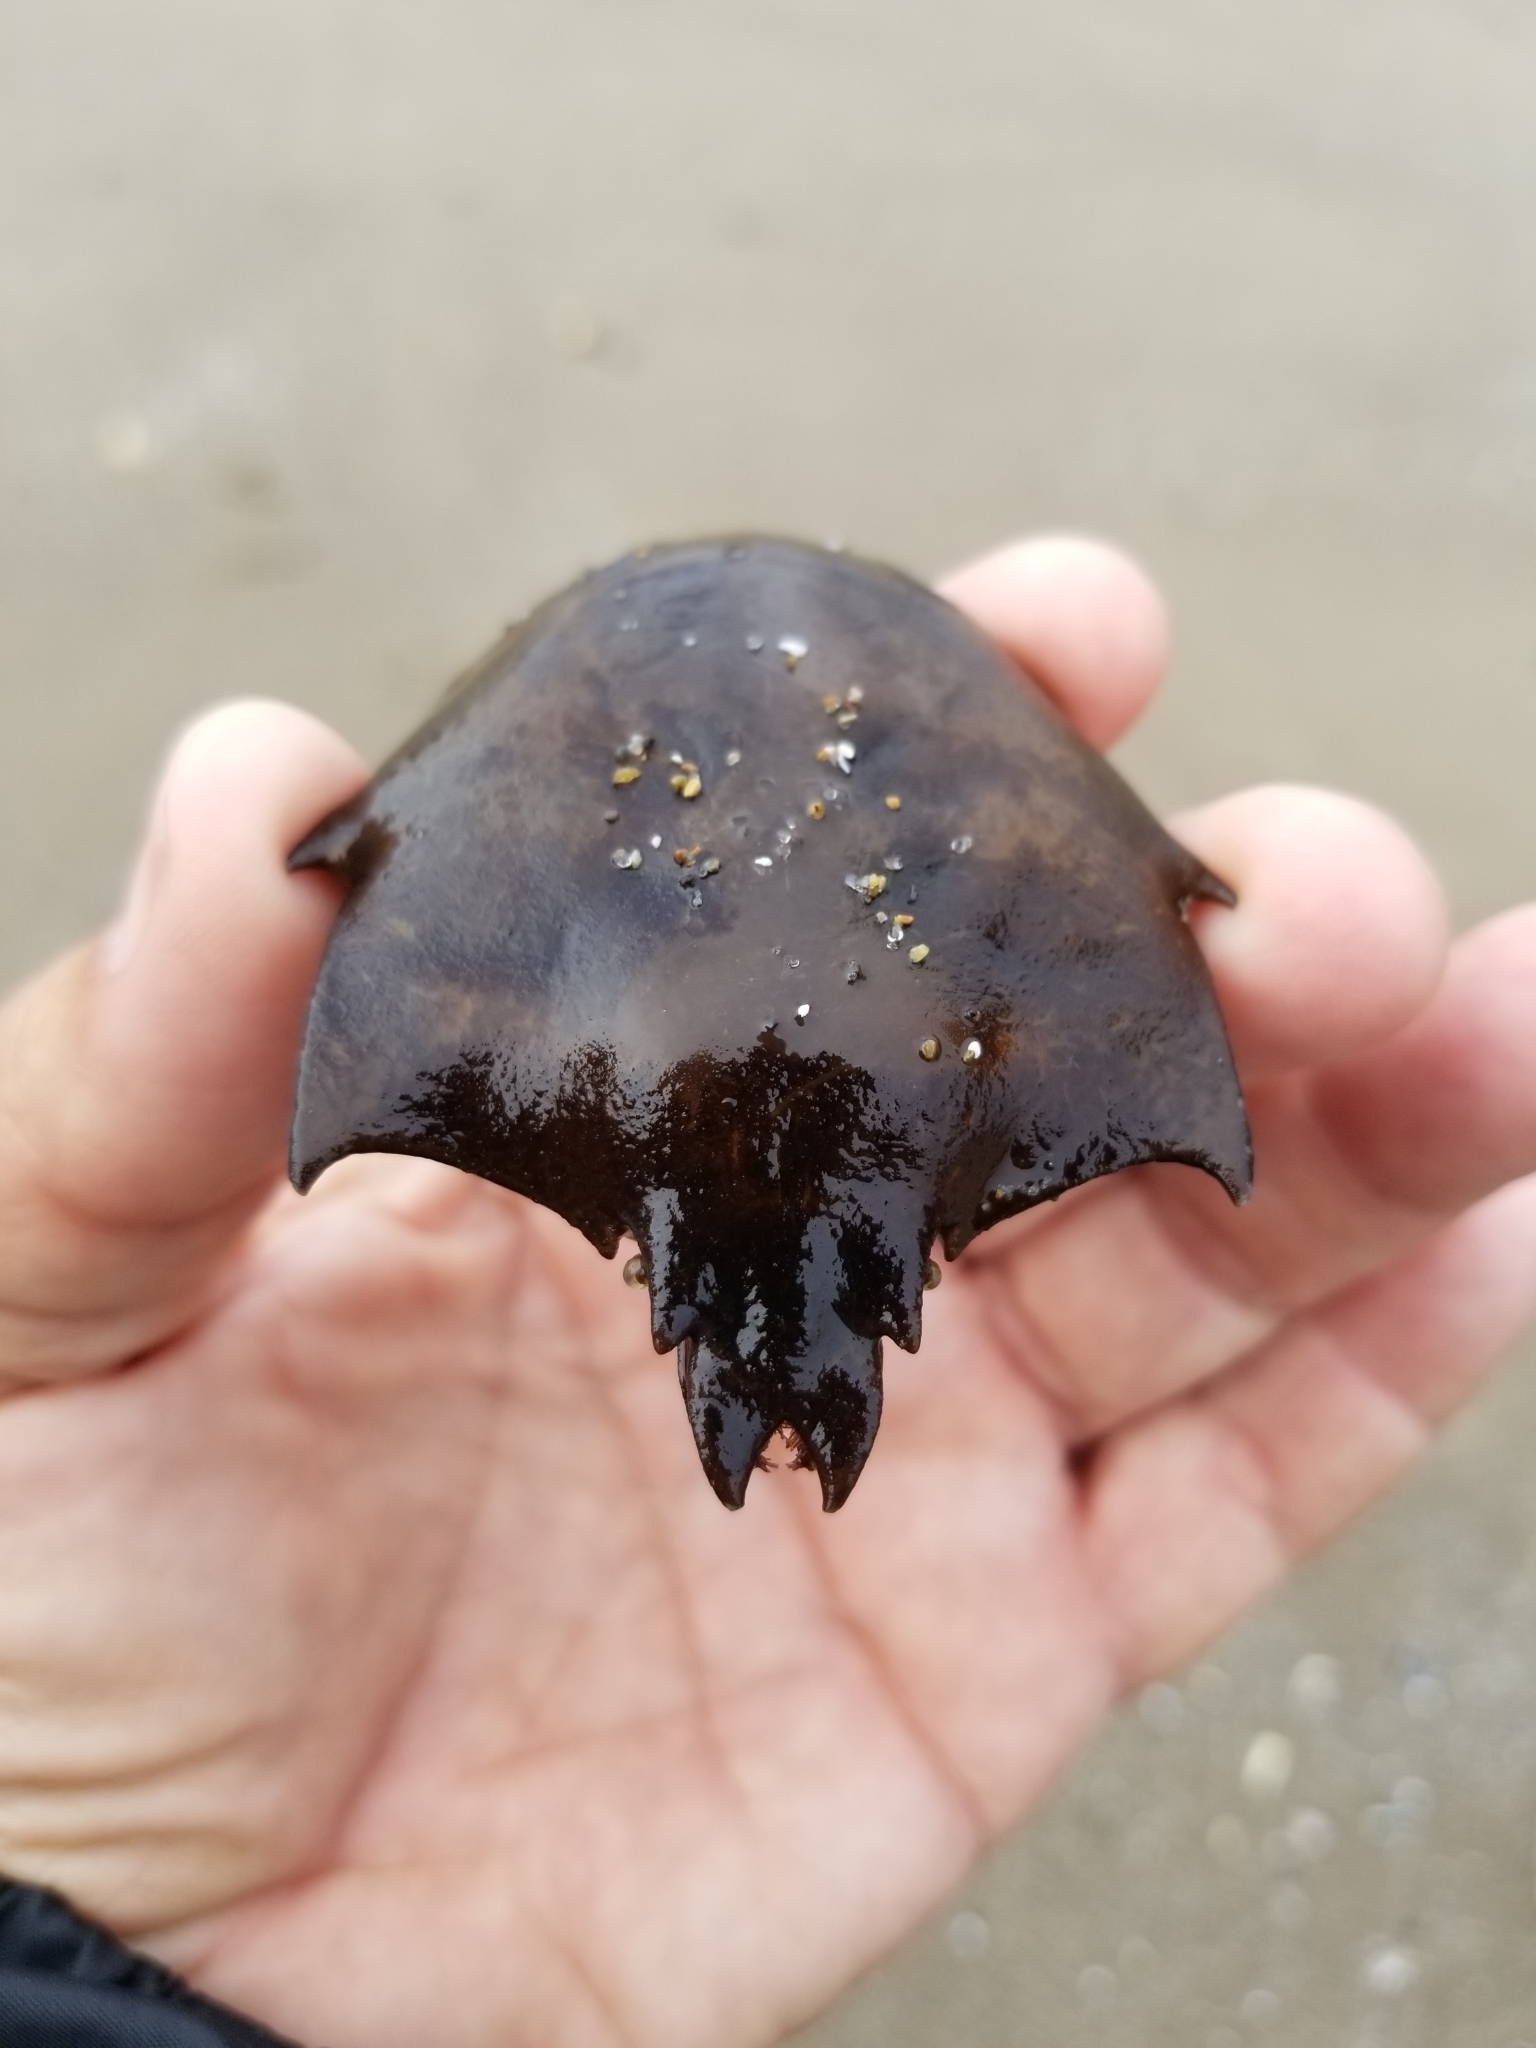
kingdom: Animalia
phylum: Arthropoda
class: Malacostraca
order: Decapoda
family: Epialtidae
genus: Pugettia
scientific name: Pugettia producta
